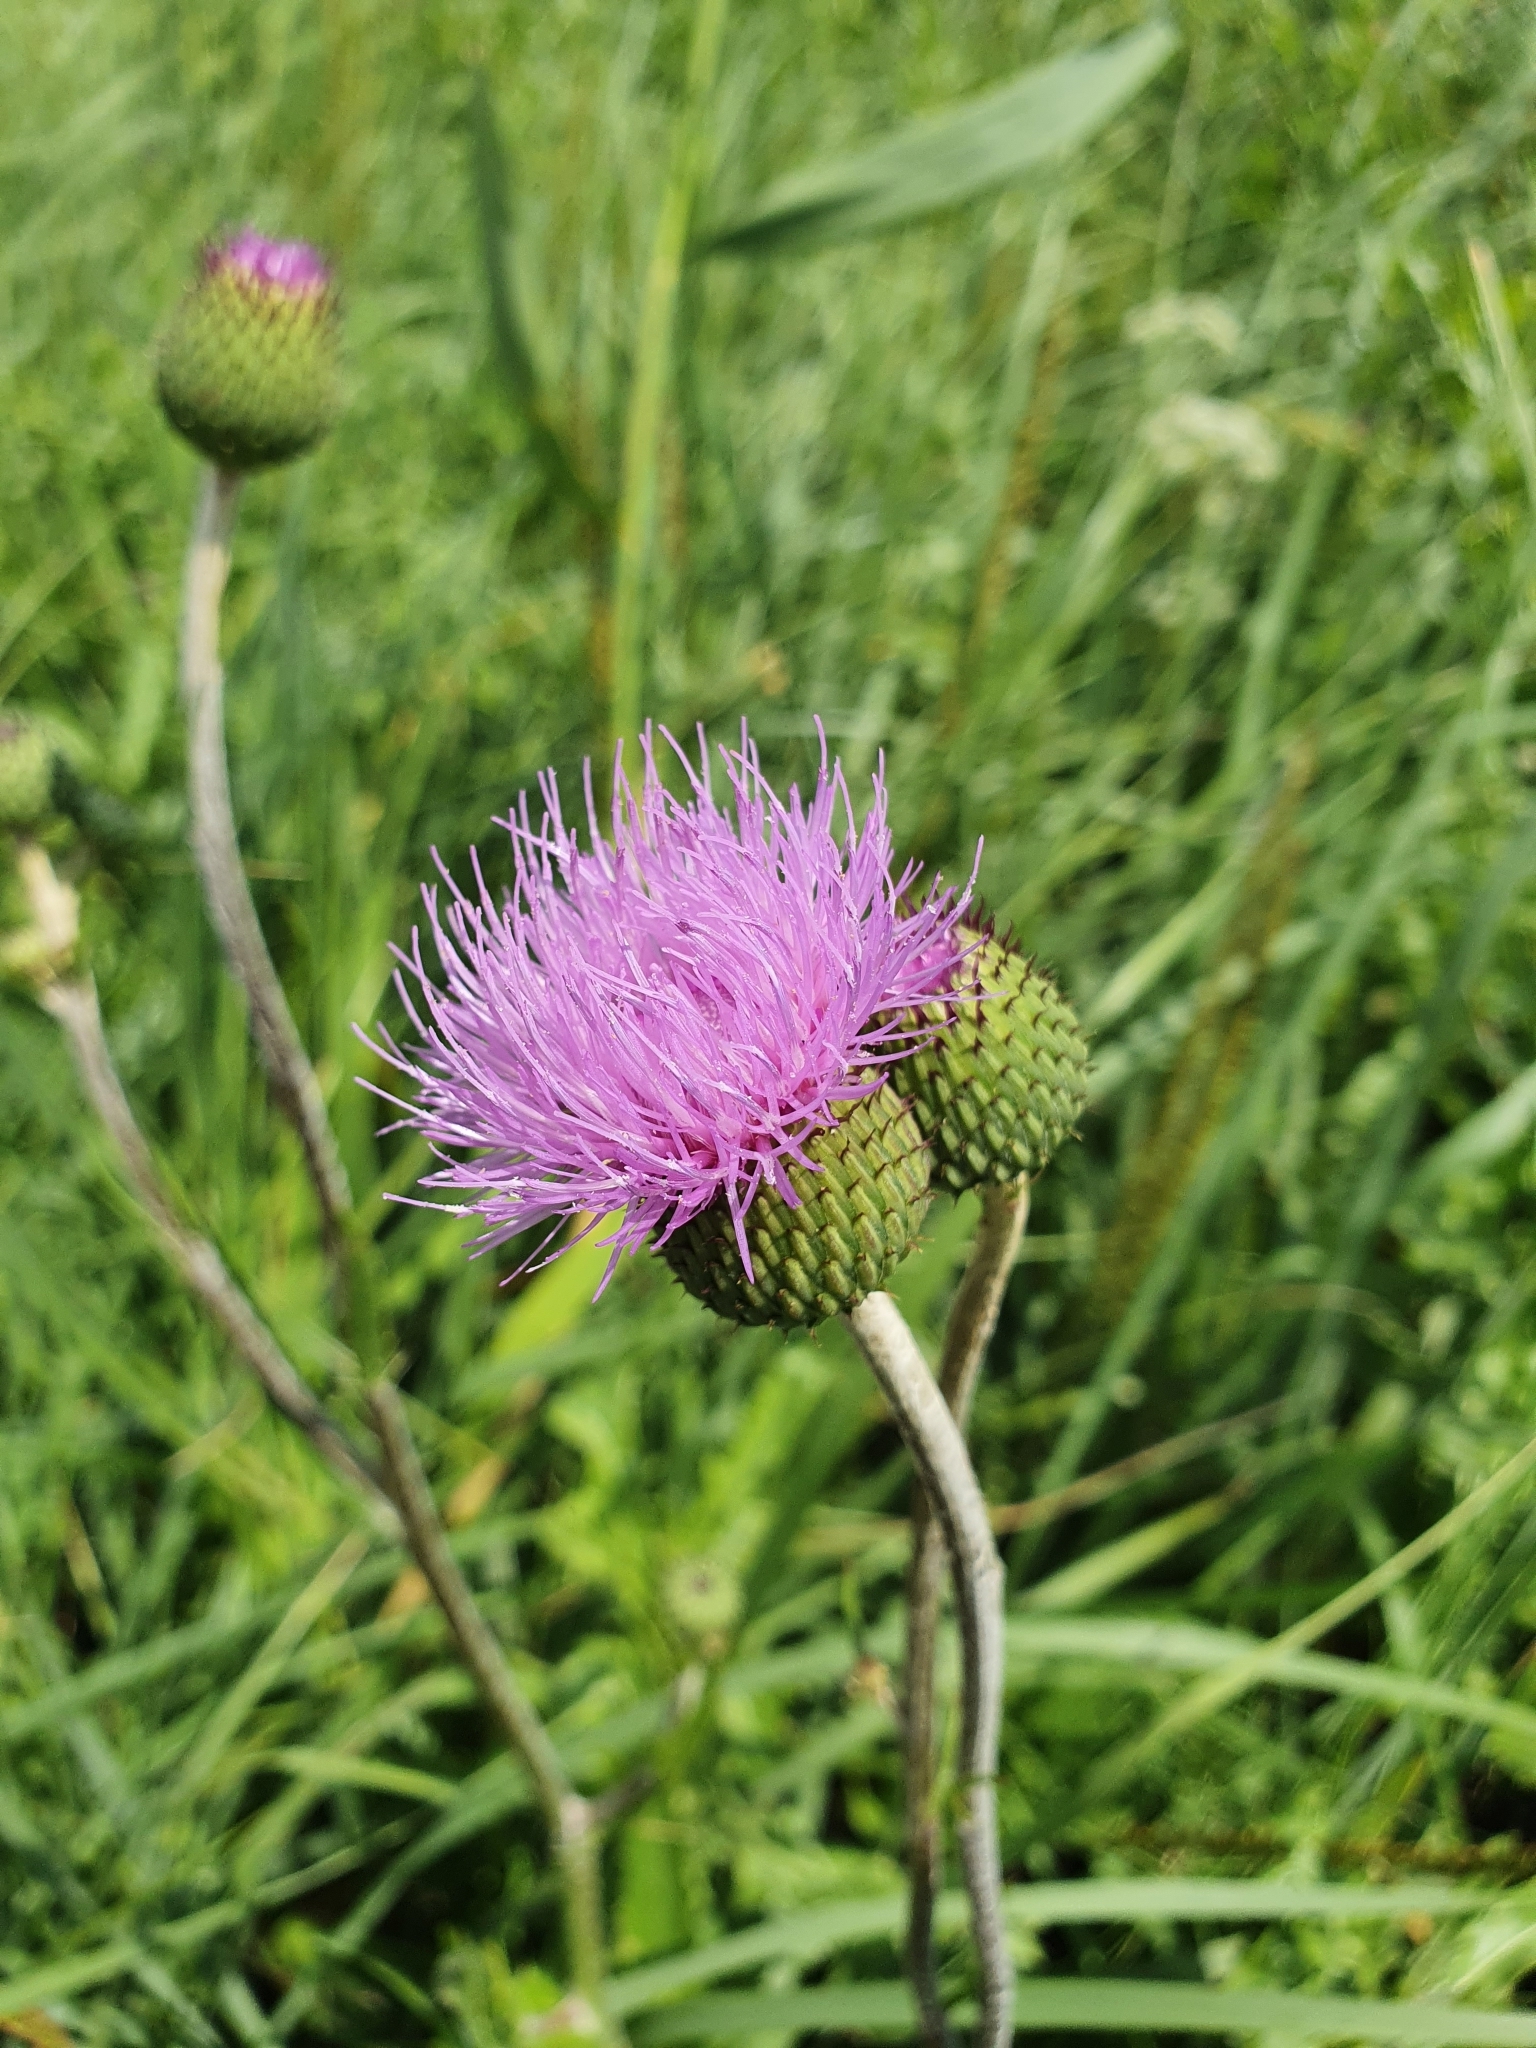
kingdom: Plantae
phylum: Tracheophyta
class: Magnoliopsida
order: Asterales
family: Asteraceae
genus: Cirsium
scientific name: Cirsium canum
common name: Queen anne's thistle
